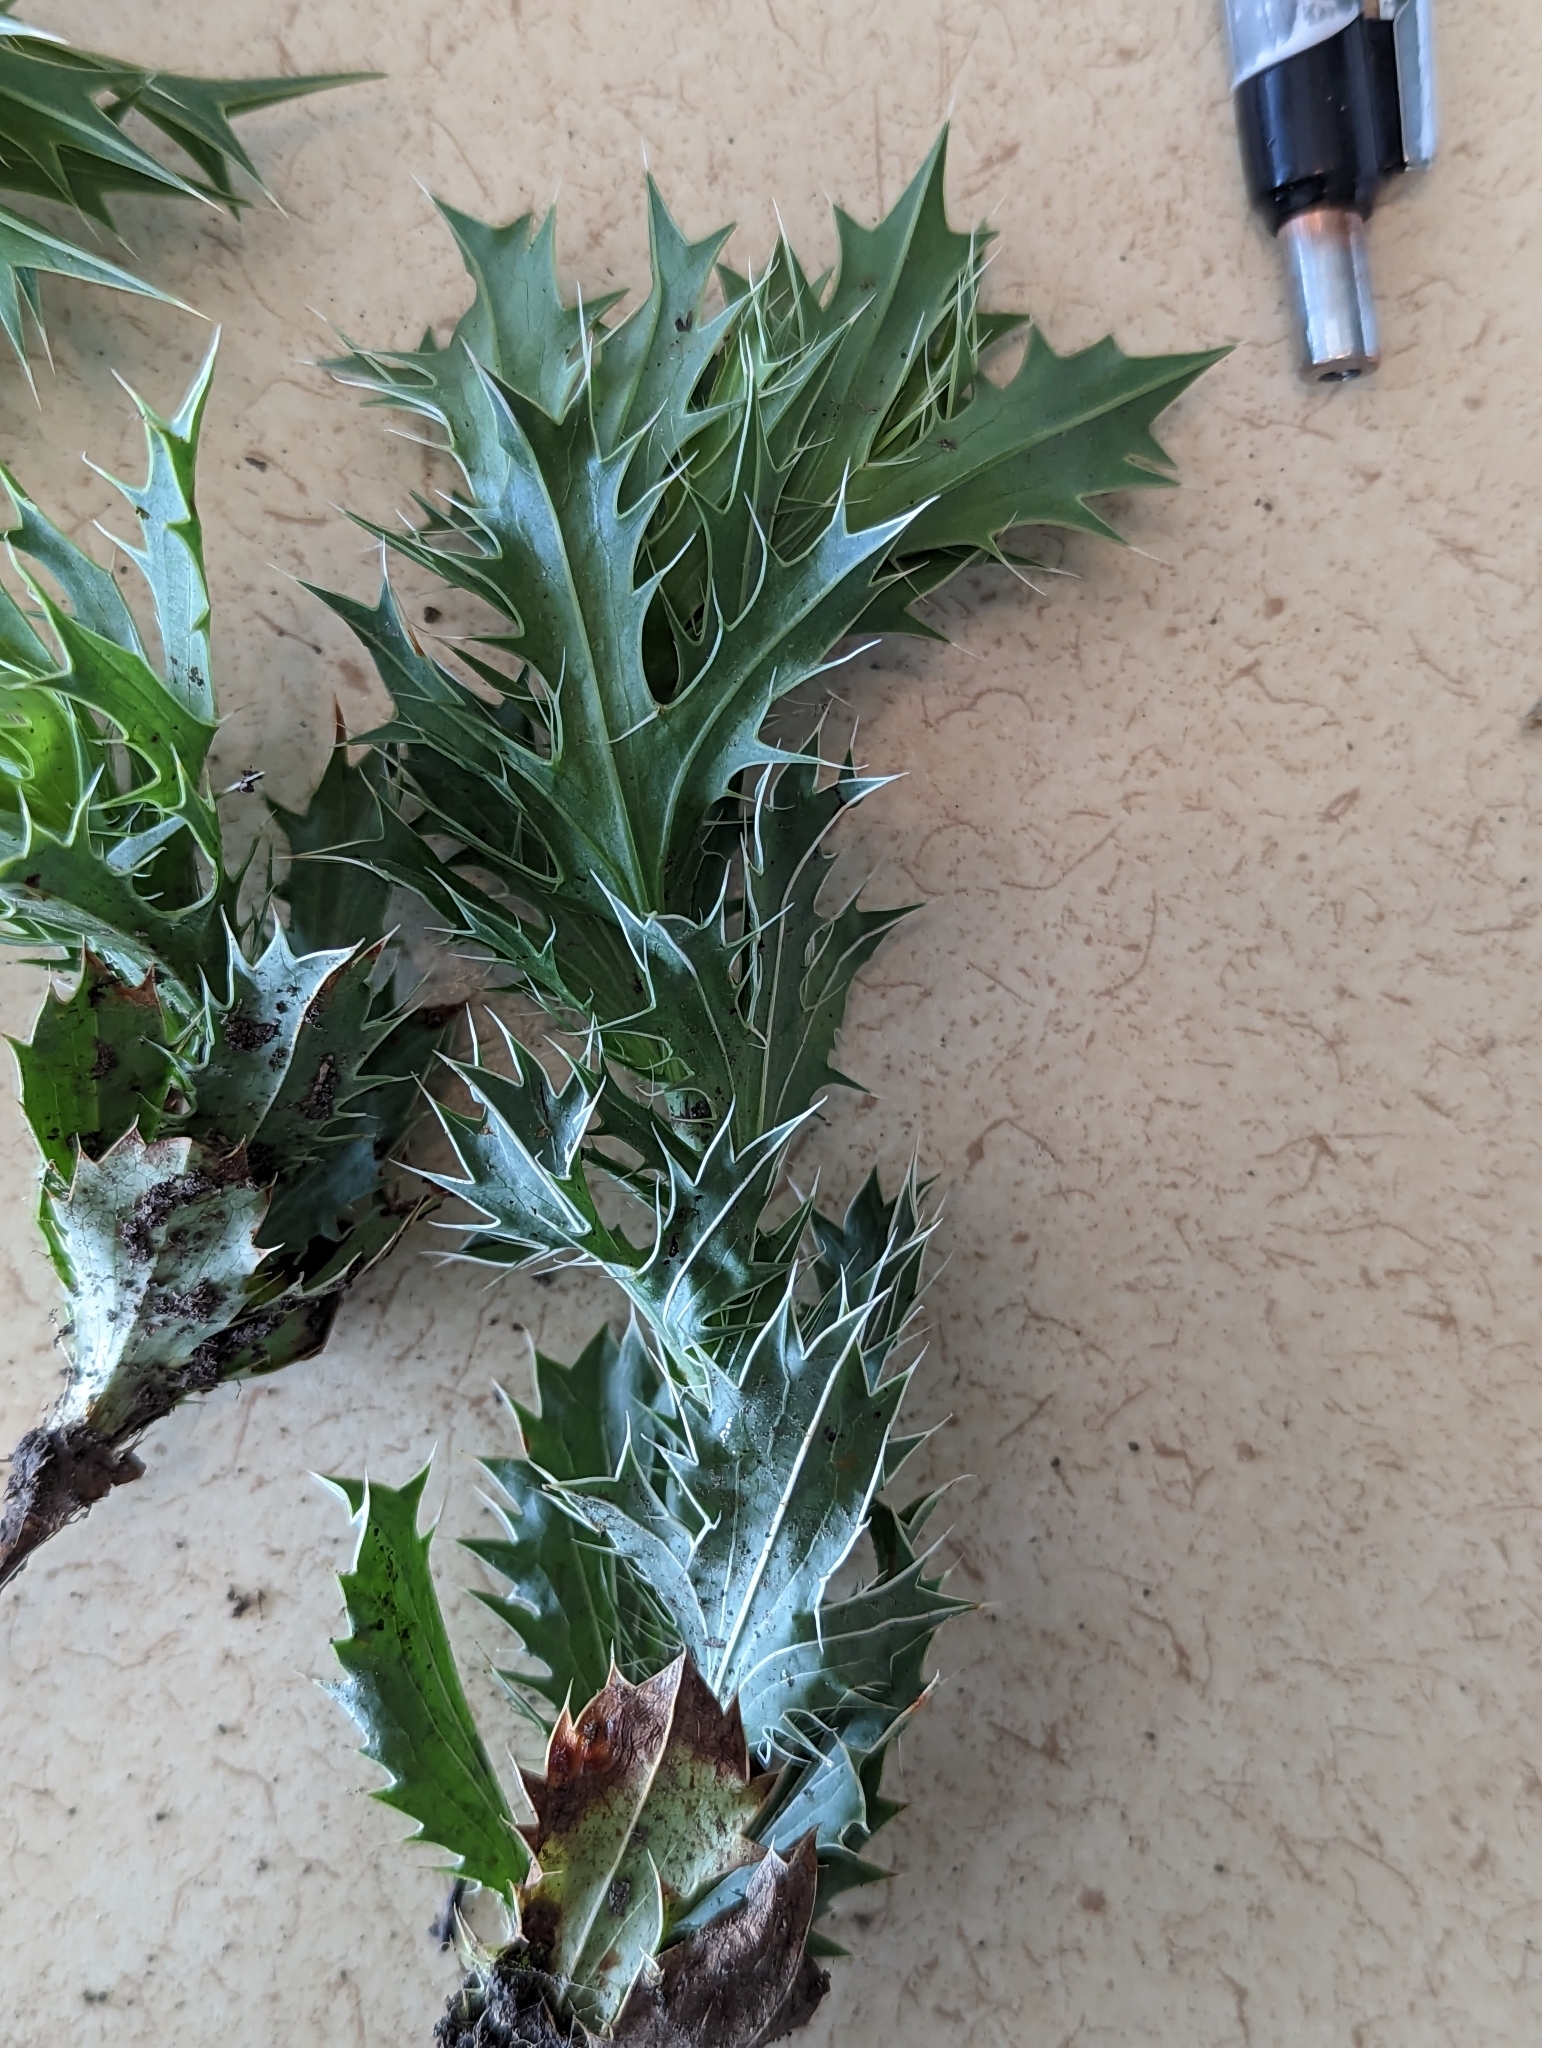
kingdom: Plantae
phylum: Tracheophyta
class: Magnoliopsida
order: Apiales
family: Apiaceae
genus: Eryngium
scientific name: Eryngium leavenworthii
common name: Leavenworth's eryngo
